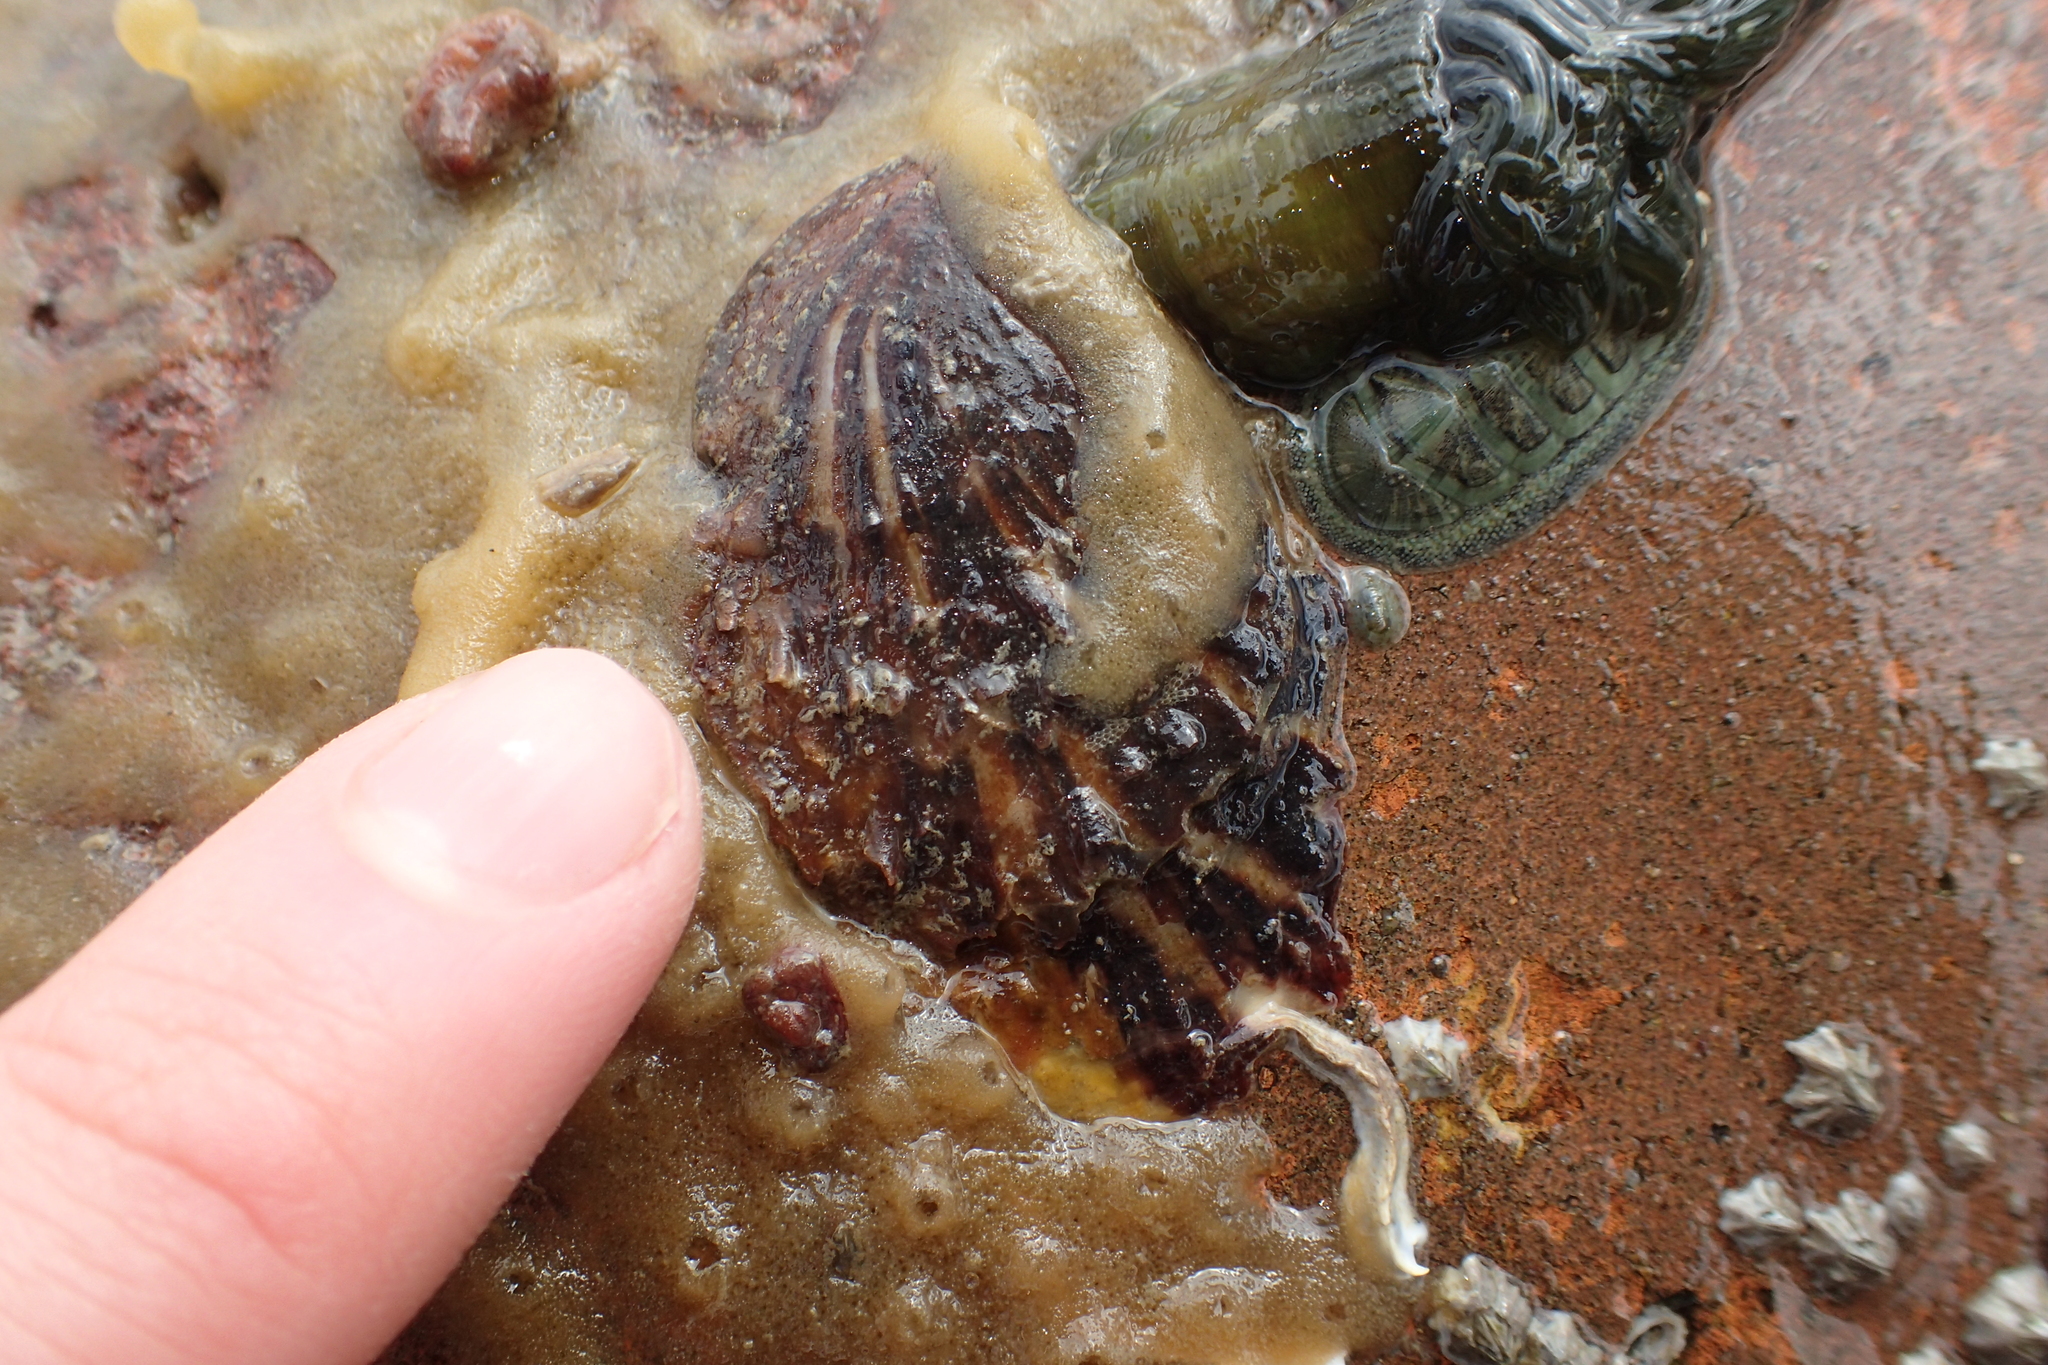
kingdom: Animalia
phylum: Mollusca
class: Bivalvia
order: Ostreida
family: Ostreidae
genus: Magallana
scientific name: Magallana gigas
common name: Pacific oyster
